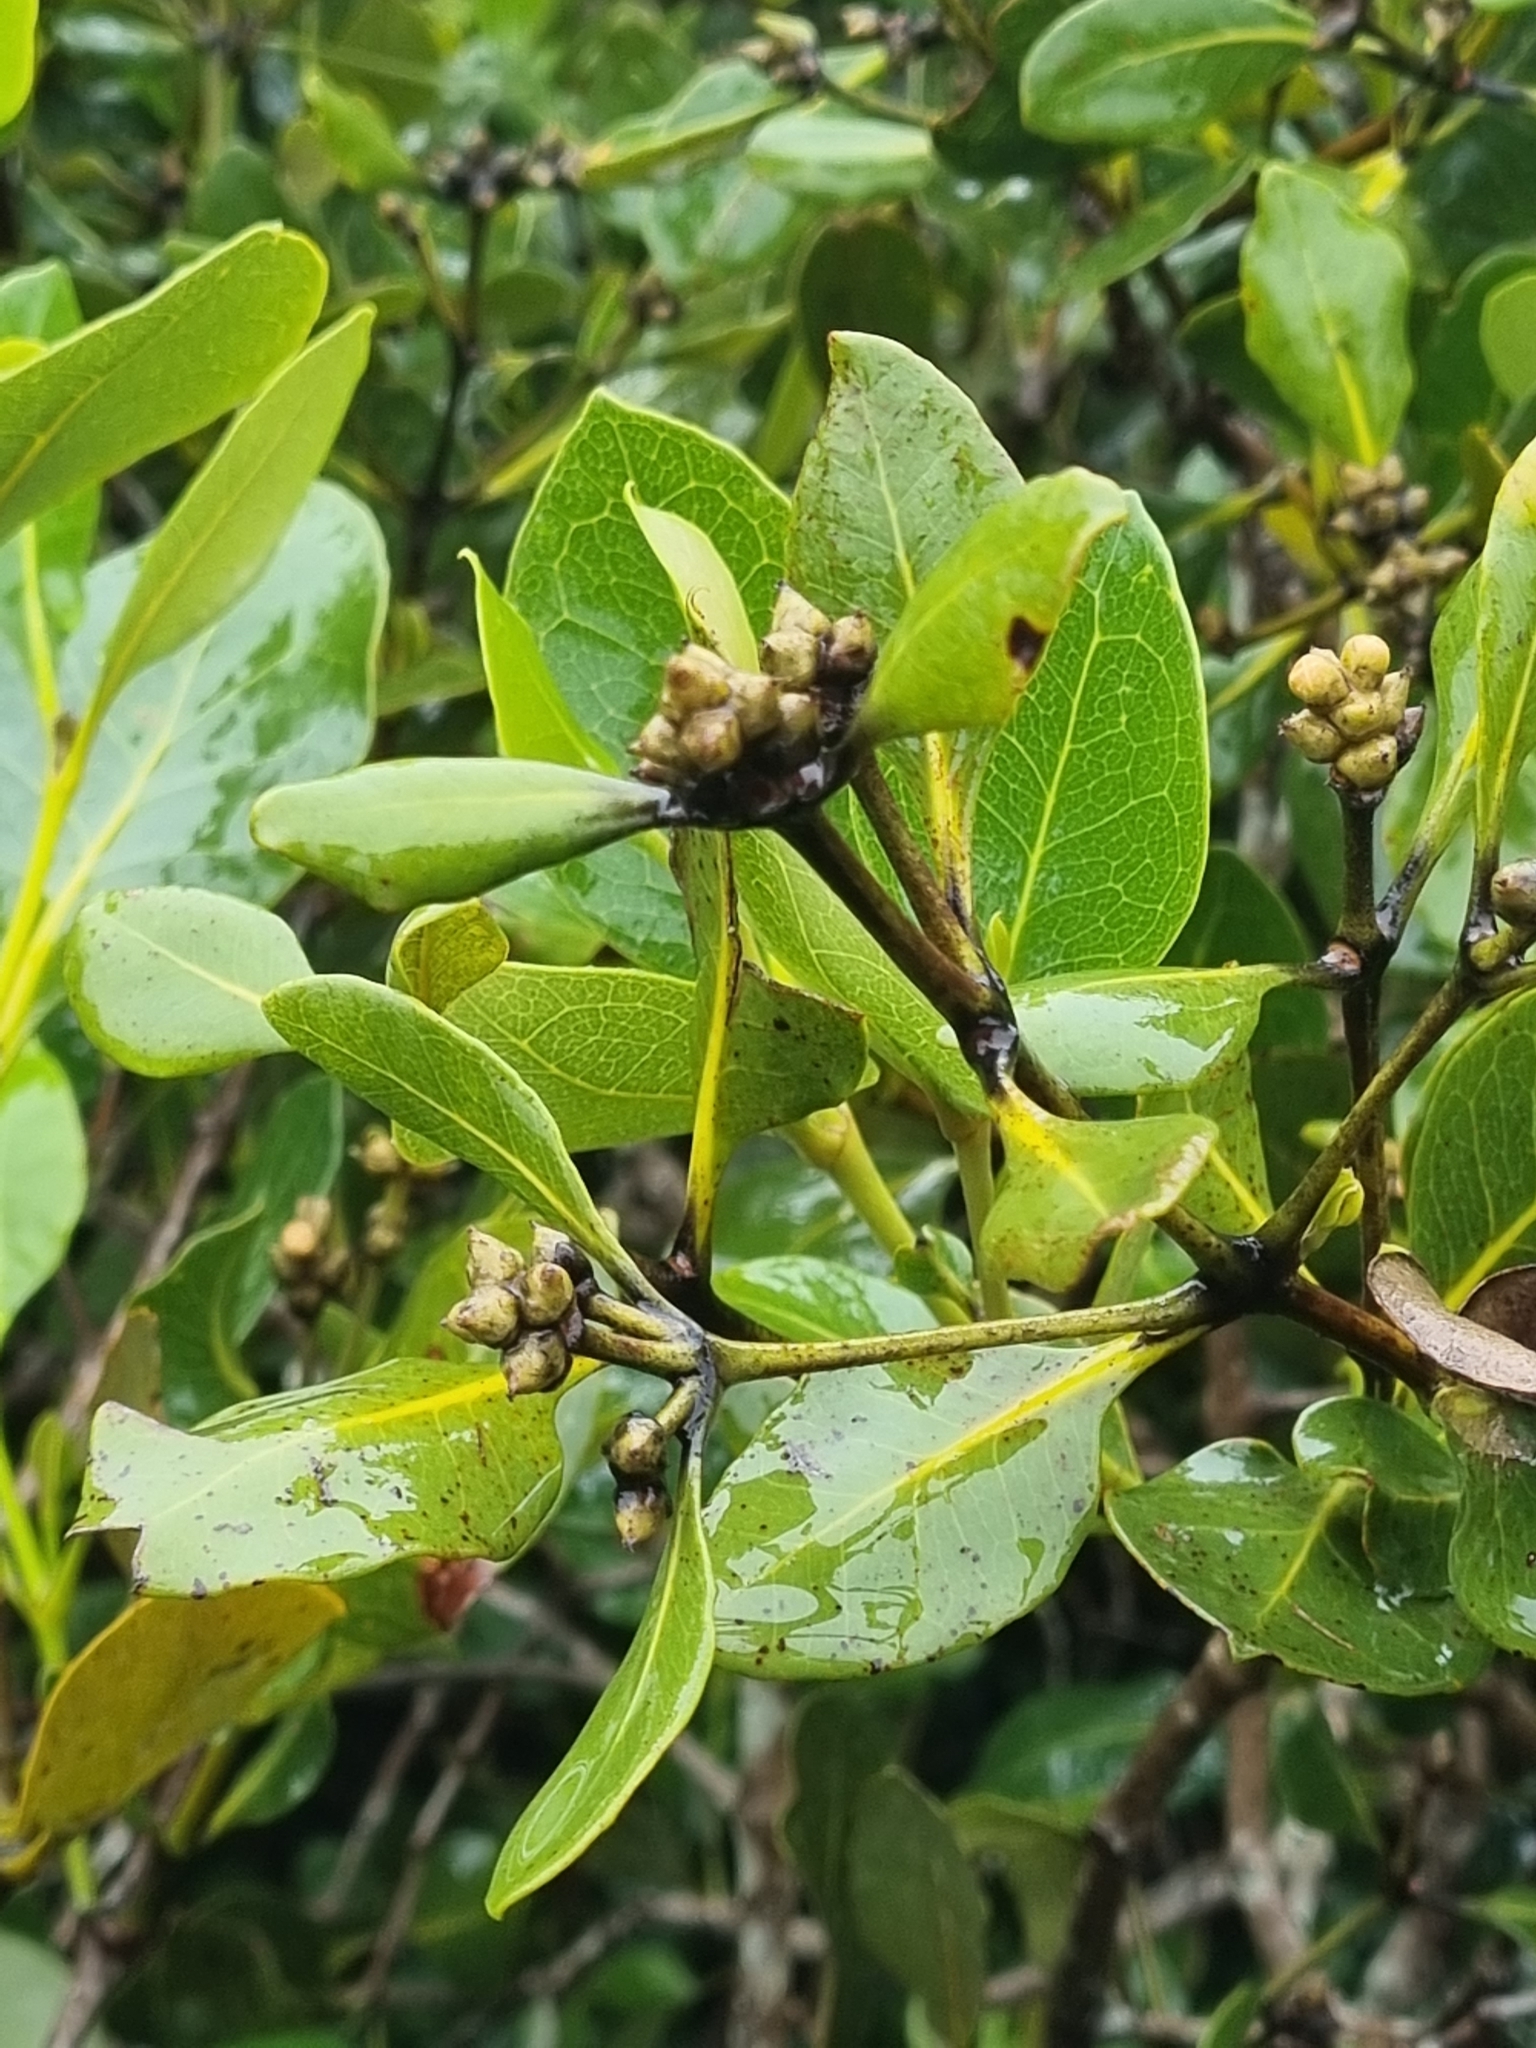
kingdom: Plantae
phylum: Tracheophyta
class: Magnoliopsida
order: Lamiales
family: Acanthaceae
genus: Avicennia
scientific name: Avicennia marina
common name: Gray mangrove
